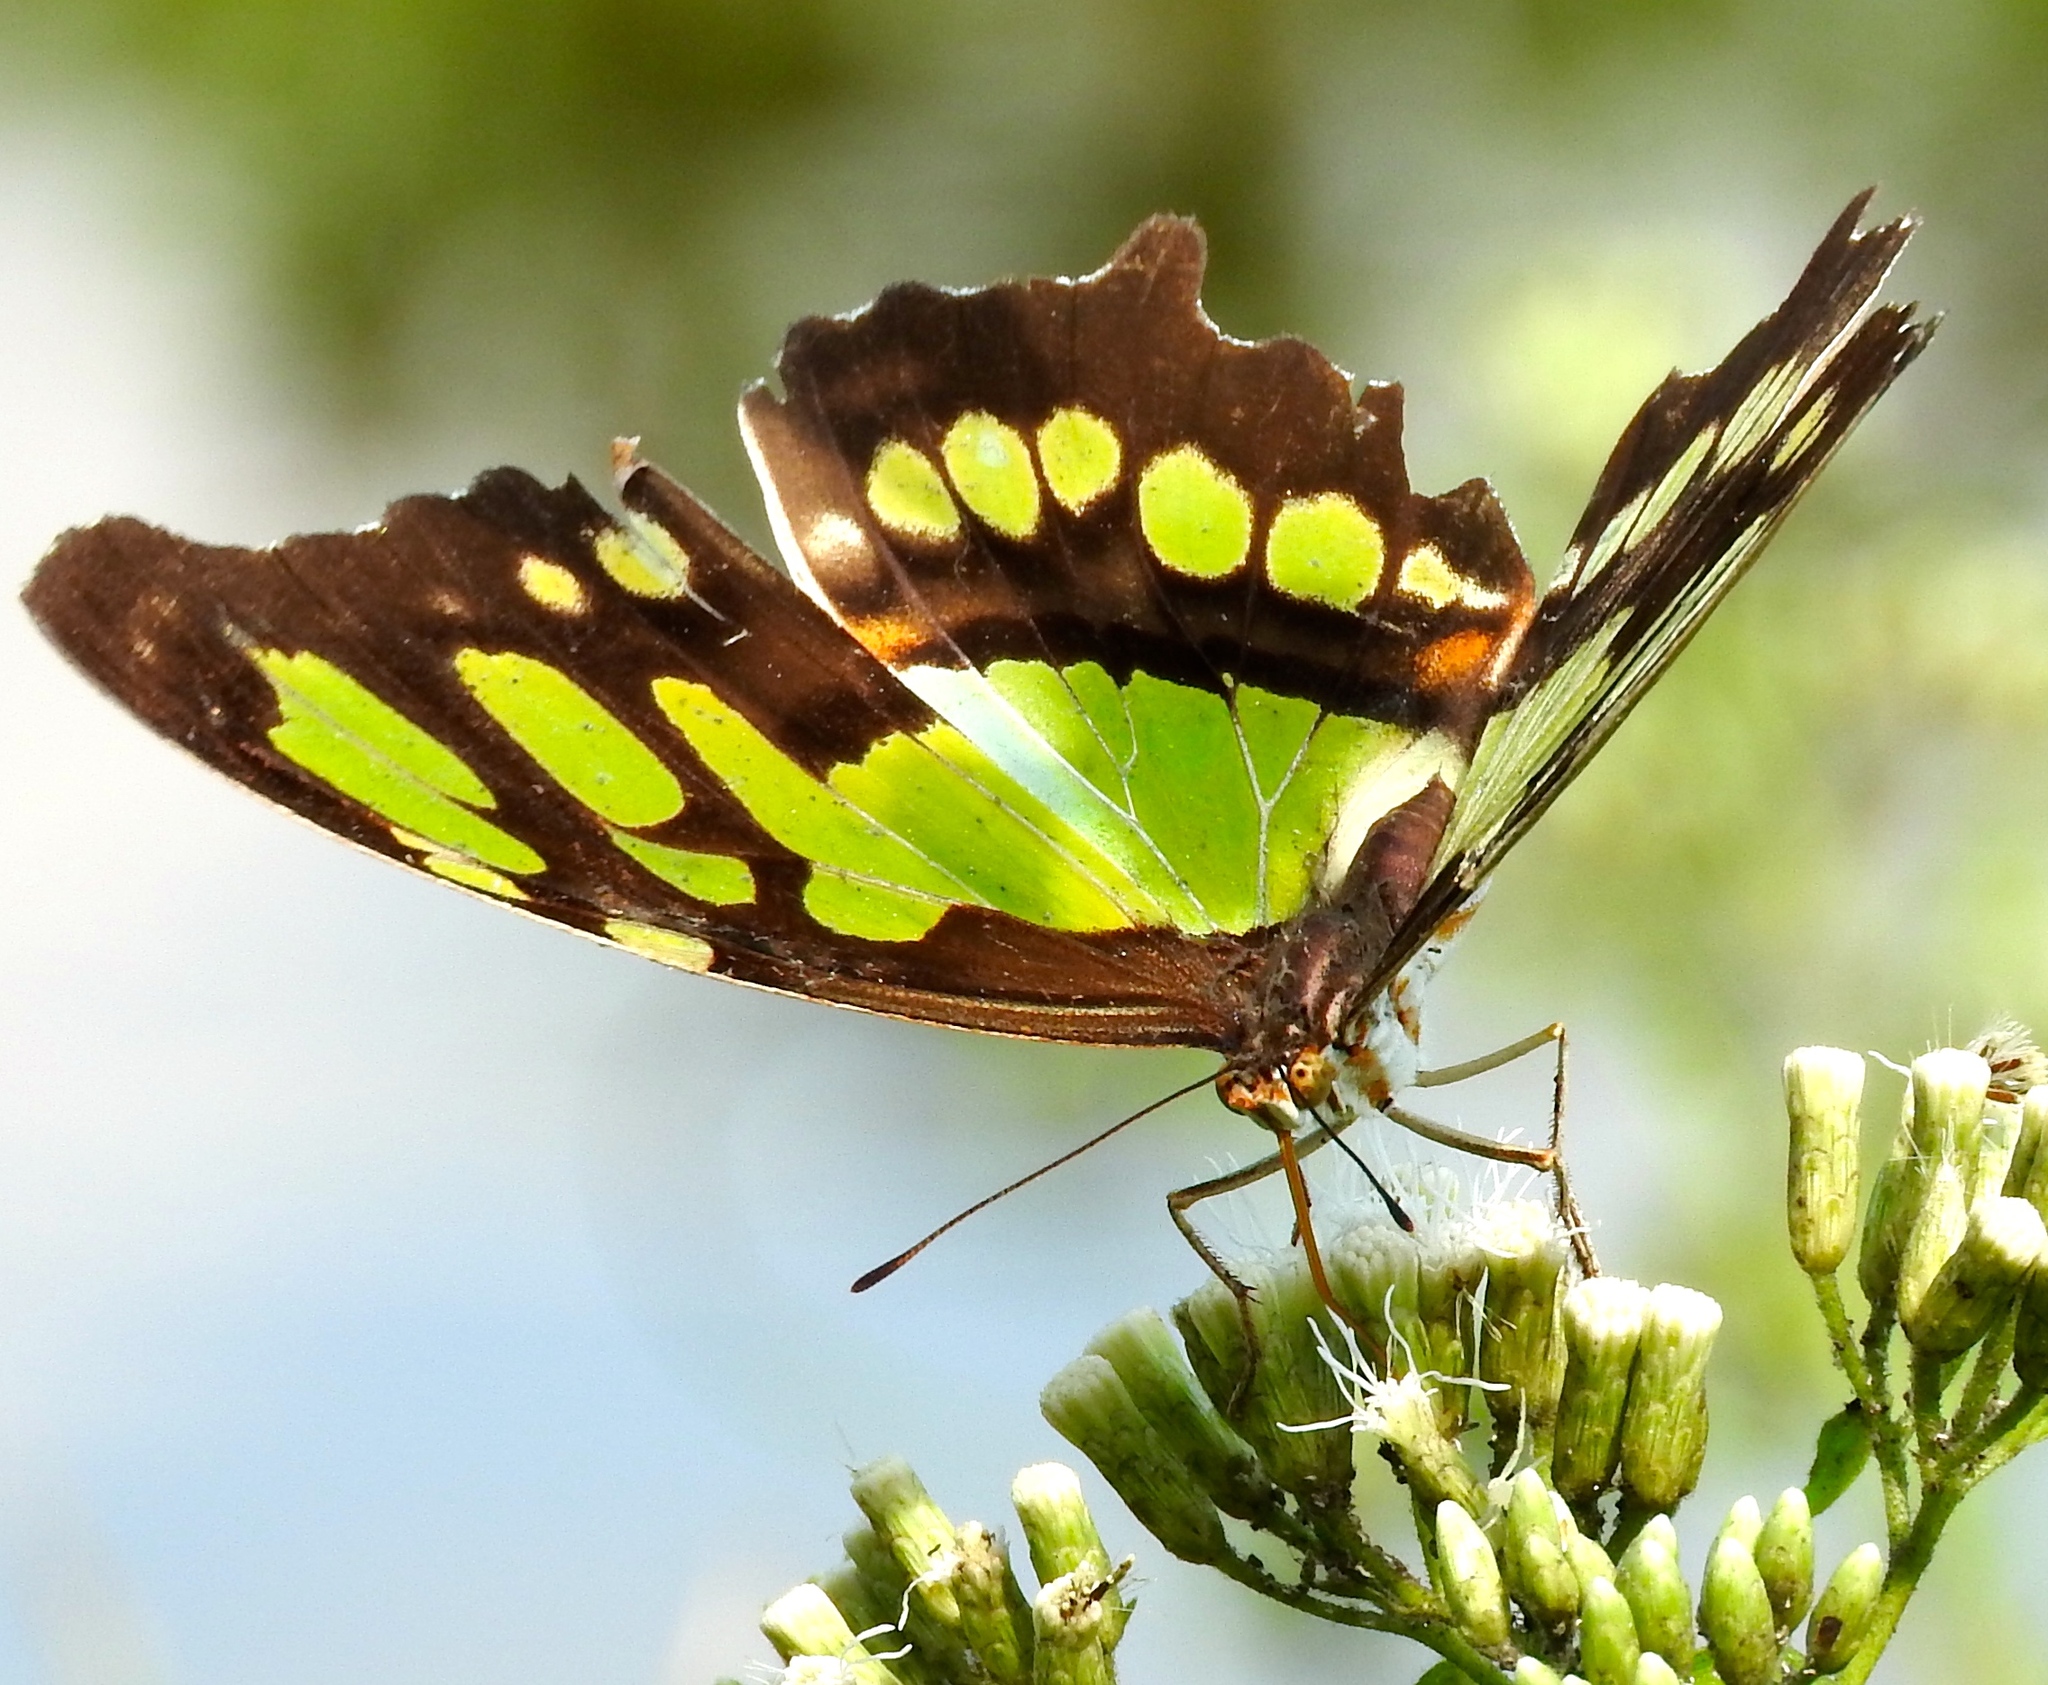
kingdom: Animalia
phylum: Arthropoda
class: Insecta
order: Lepidoptera
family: Nymphalidae
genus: Siproeta
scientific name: Siproeta stelenes
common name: Malachite
